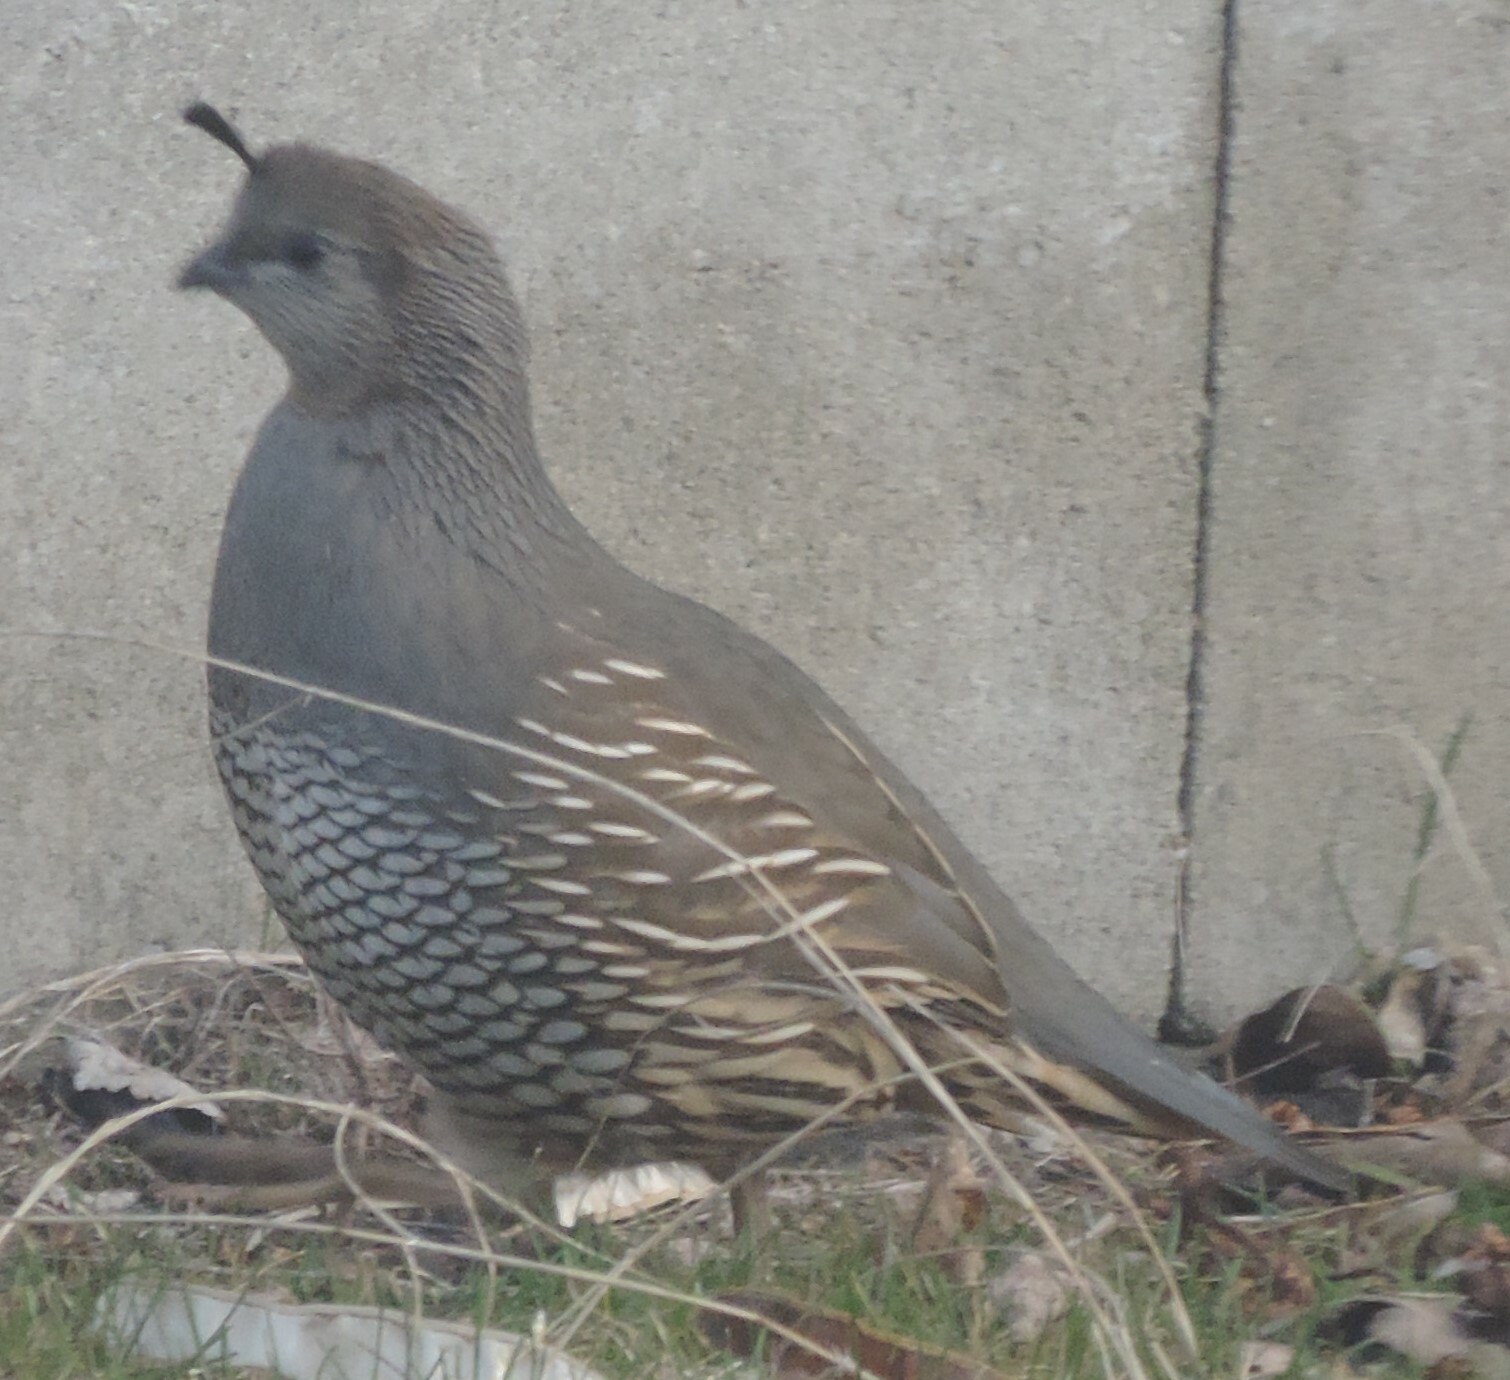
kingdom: Animalia
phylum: Chordata
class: Aves
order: Galliformes
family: Odontophoridae
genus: Callipepla
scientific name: Callipepla californica
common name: California quail
